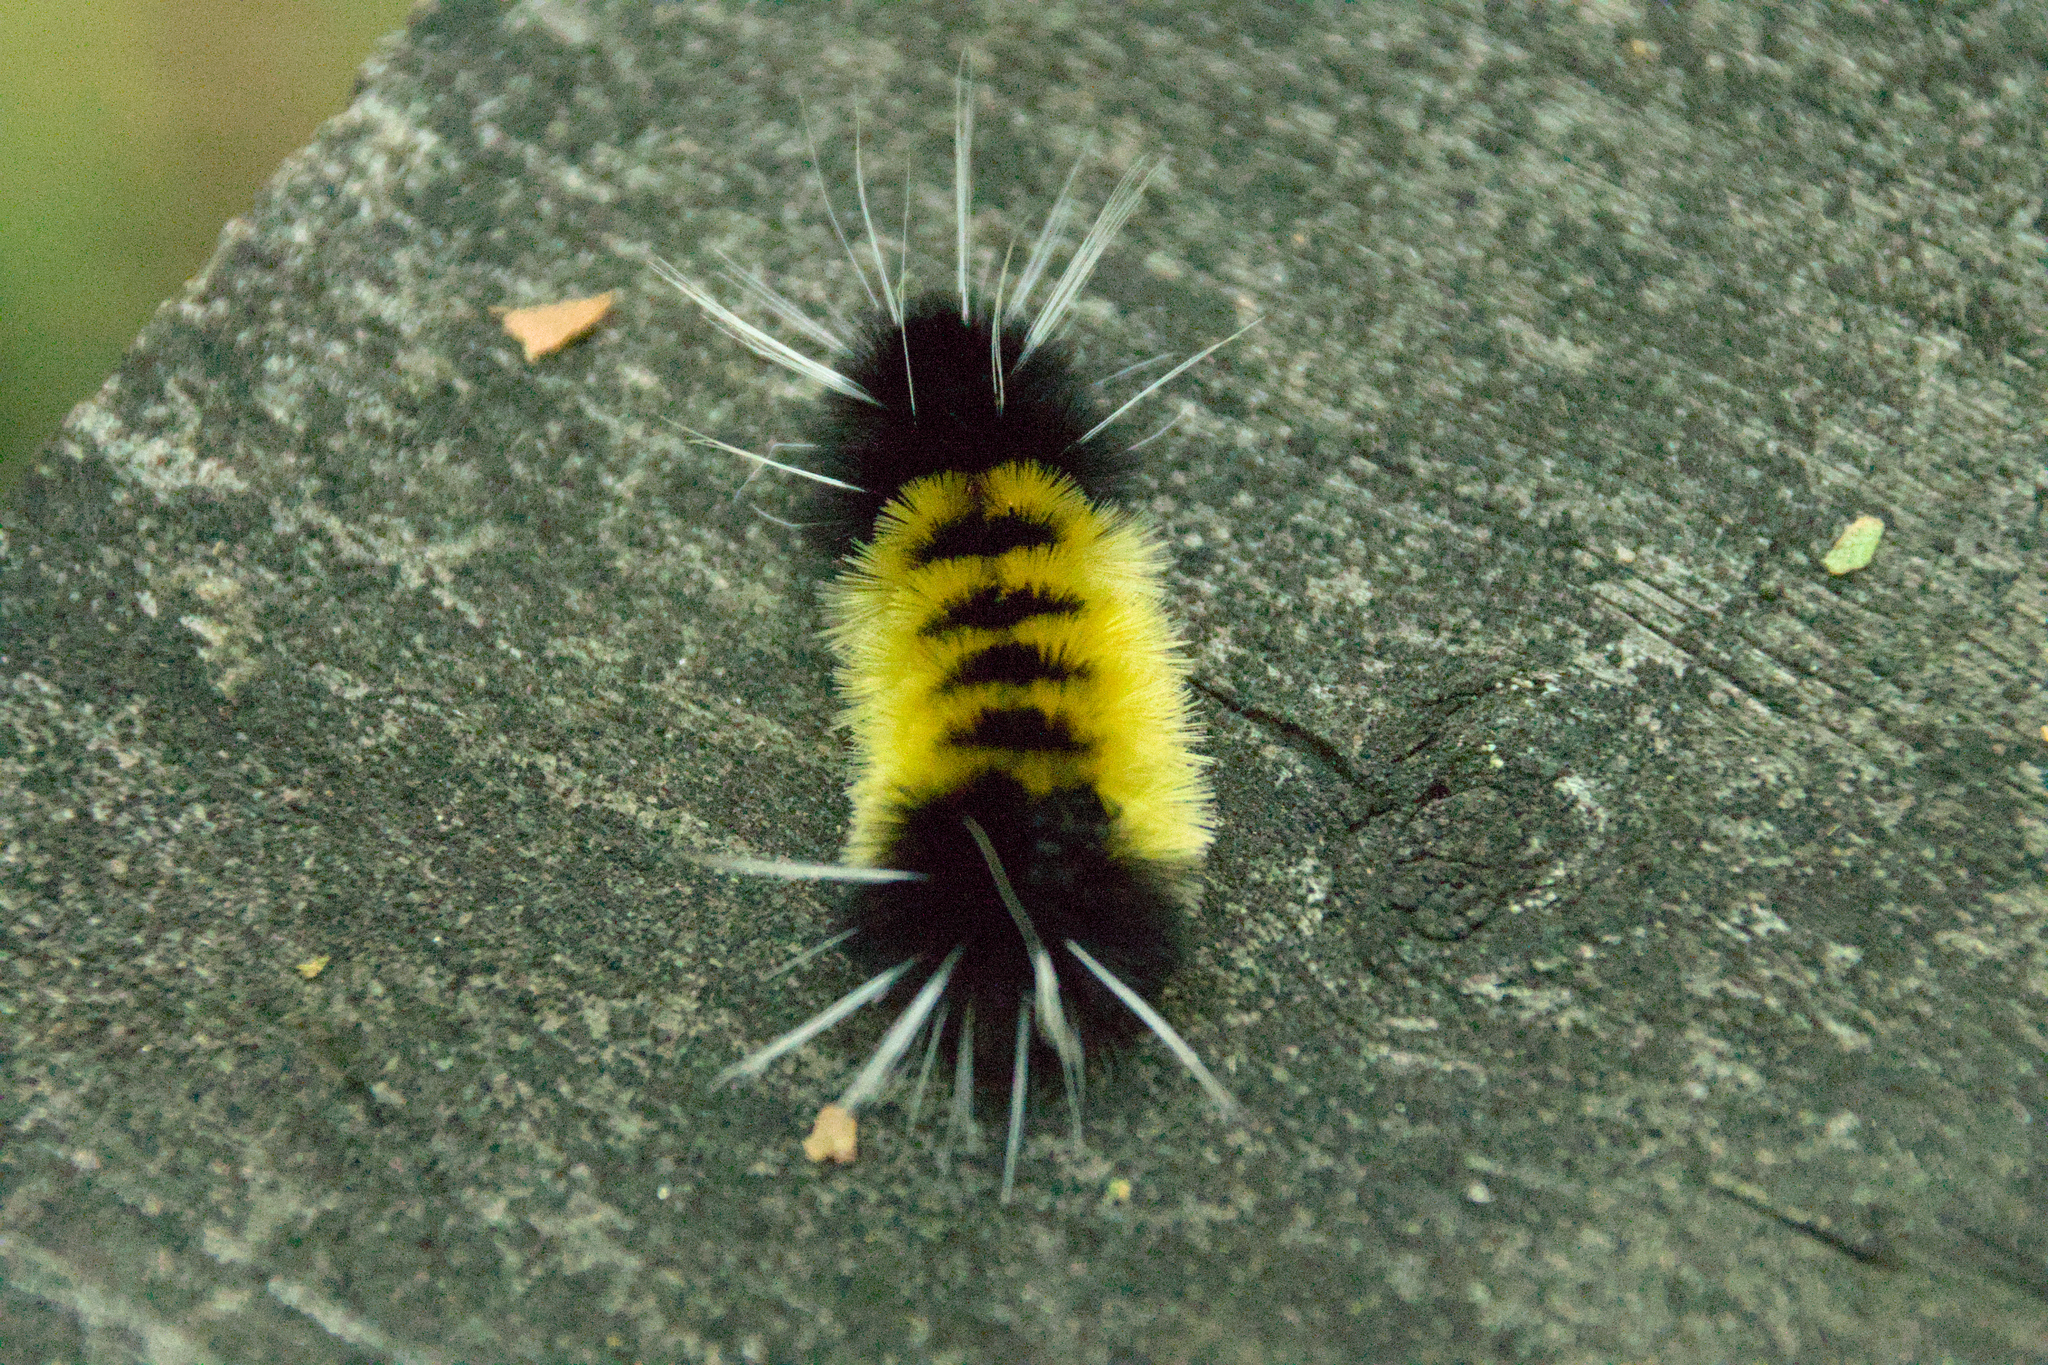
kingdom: Animalia
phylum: Arthropoda
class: Insecta
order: Lepidoptera
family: Erebidae
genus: Lophocampa
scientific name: Lophocampa maculata
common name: Spotted tussock moth
